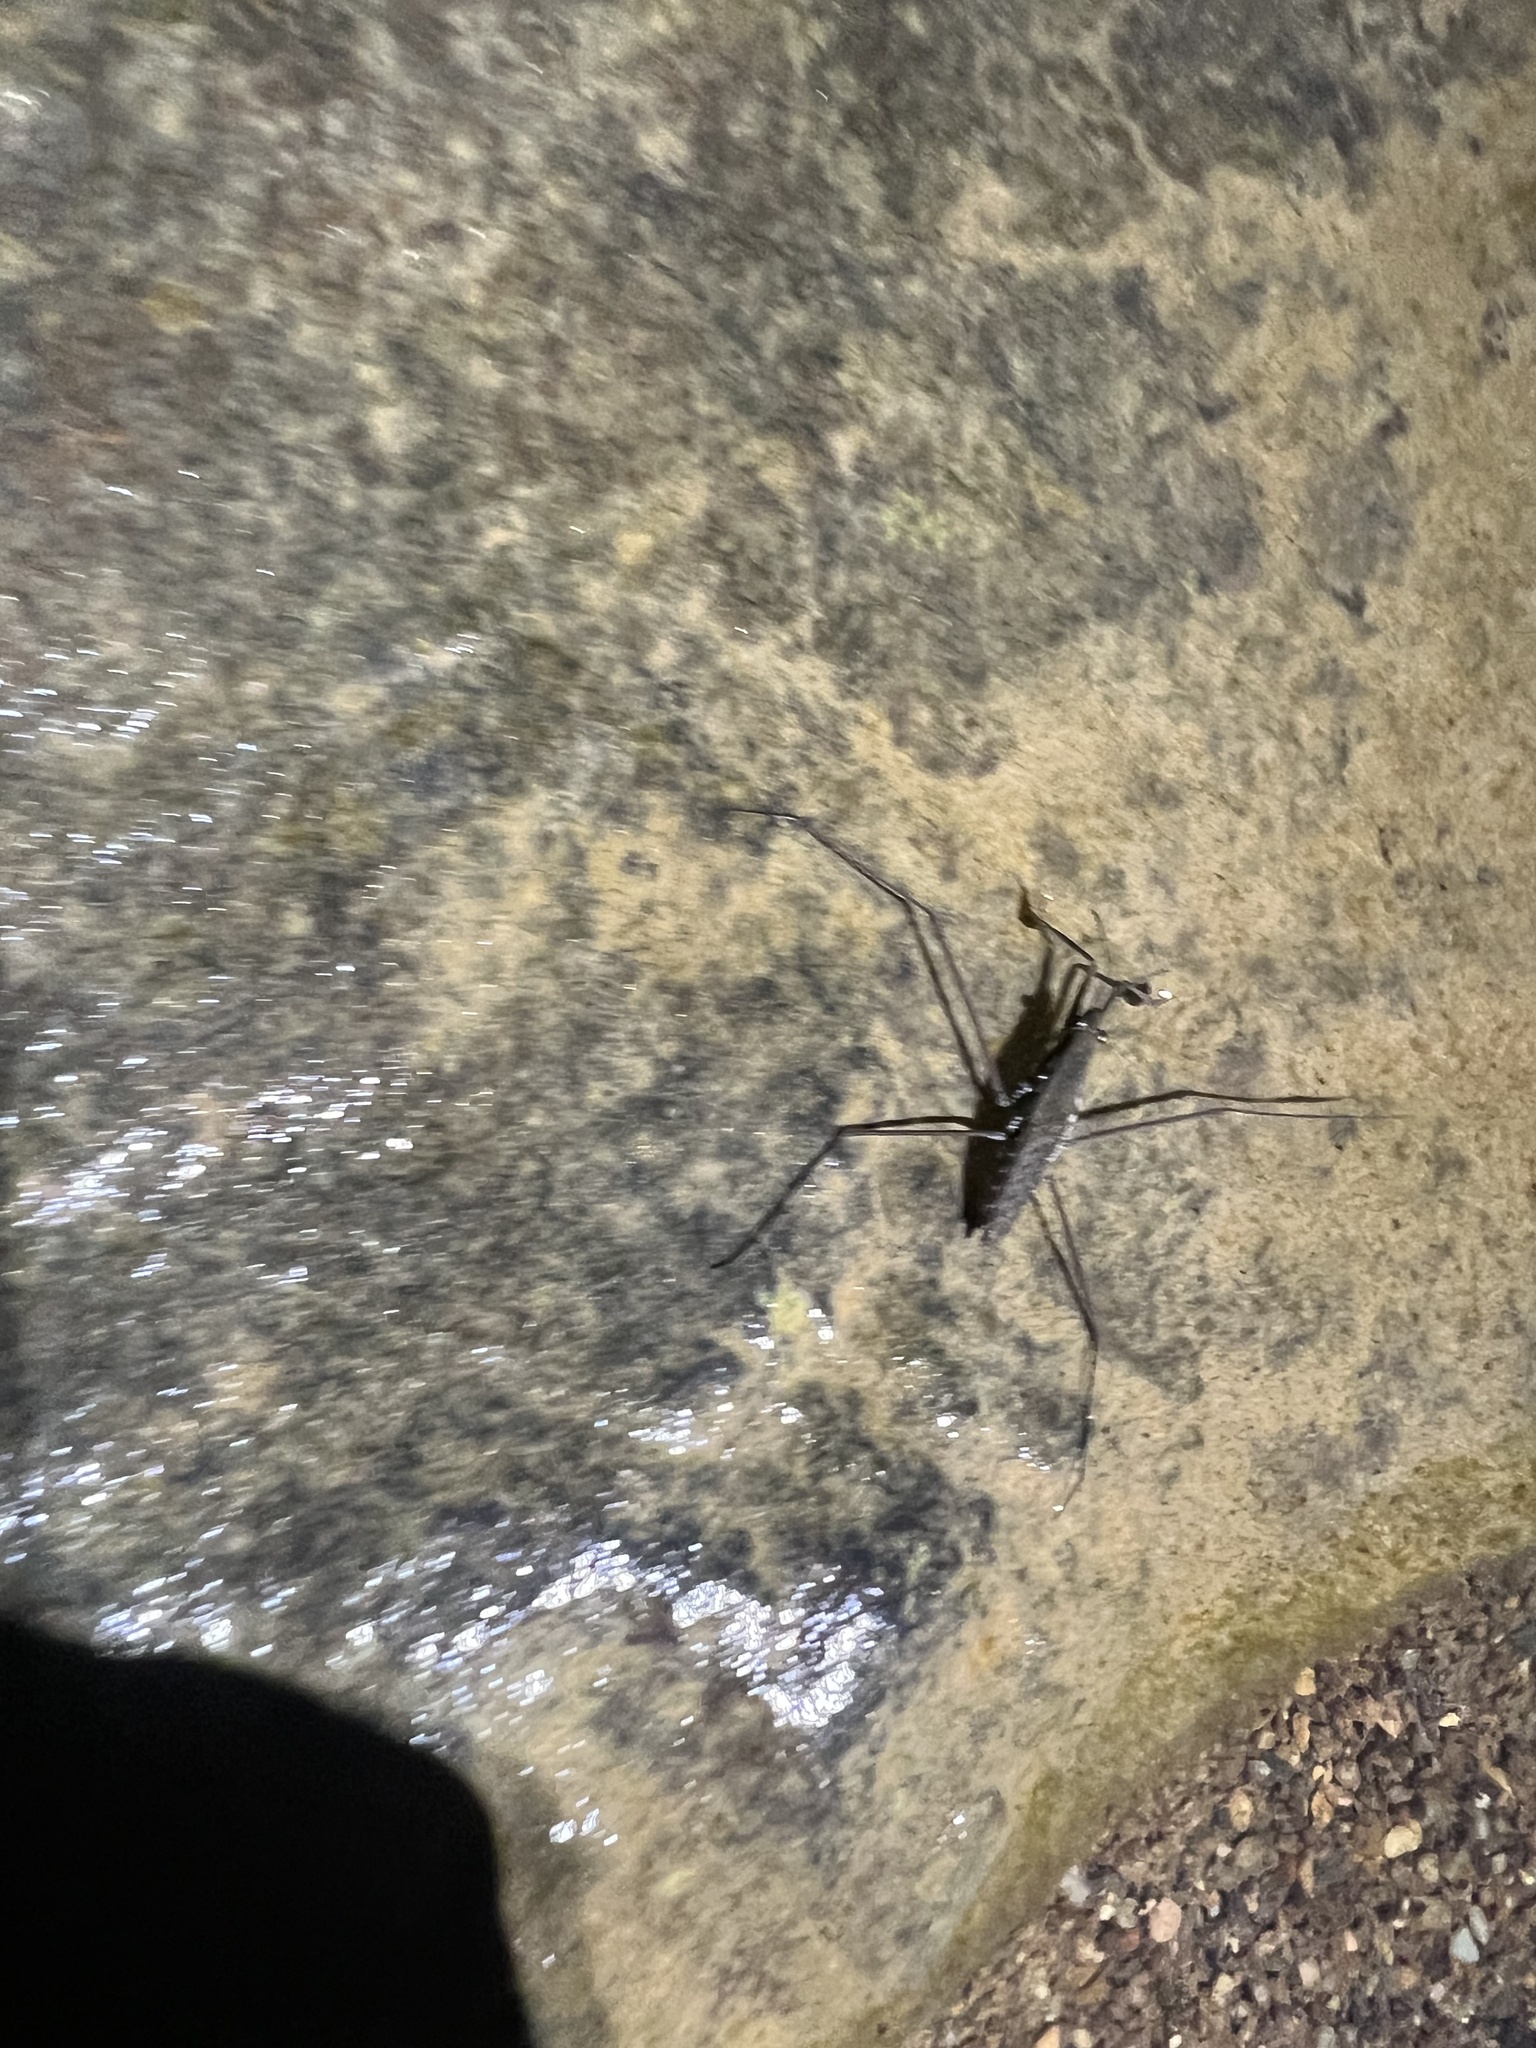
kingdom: Animalia
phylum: Arthropoda
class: Insecta
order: Hemiptera
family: Gerridae
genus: Aquarius
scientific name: Aquarius
